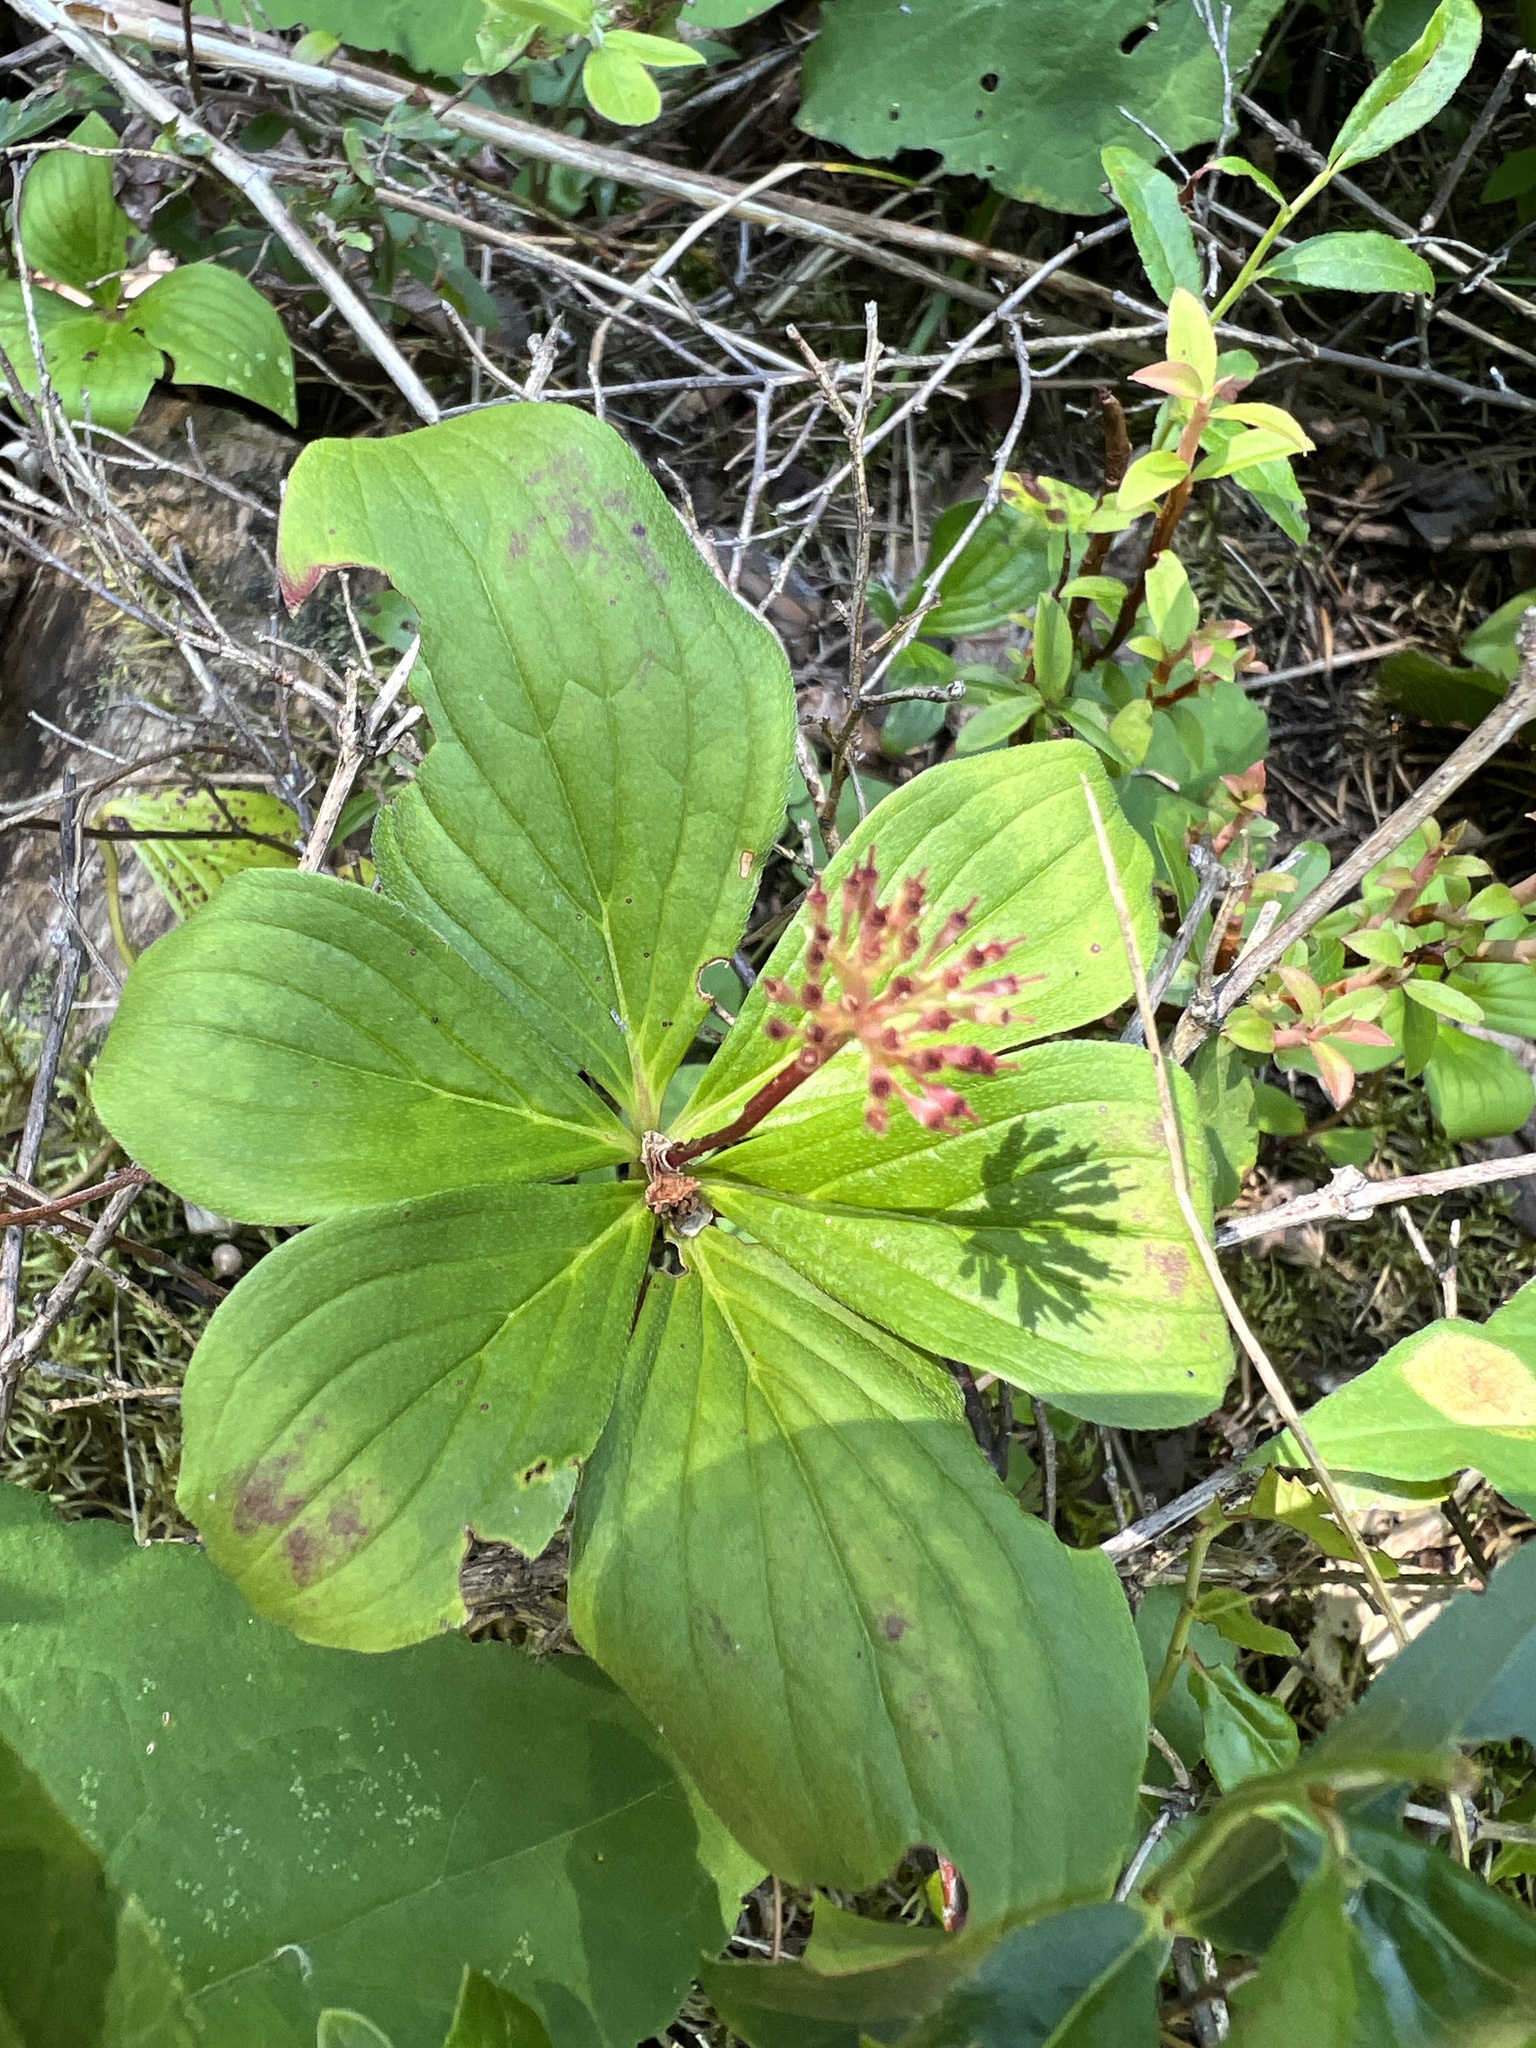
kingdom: Plantae
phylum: Tracheophyta
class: Magnoliopsida
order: Cornales
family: Cornaceae
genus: Cornus
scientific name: Cornus canadensis
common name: Creeping dogwood
